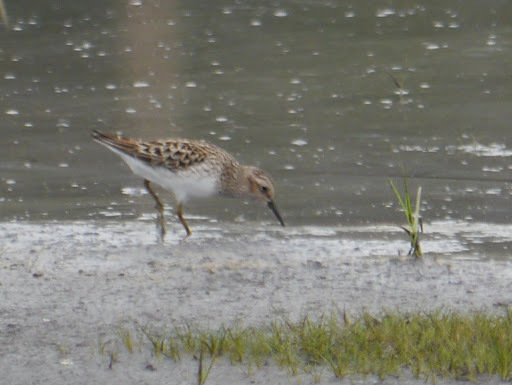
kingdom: Animalia
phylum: Chordata
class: Aves
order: Charadriiformes
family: Scolopacidae
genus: Calidris
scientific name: Calidris minutilla
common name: Least sandpiper
